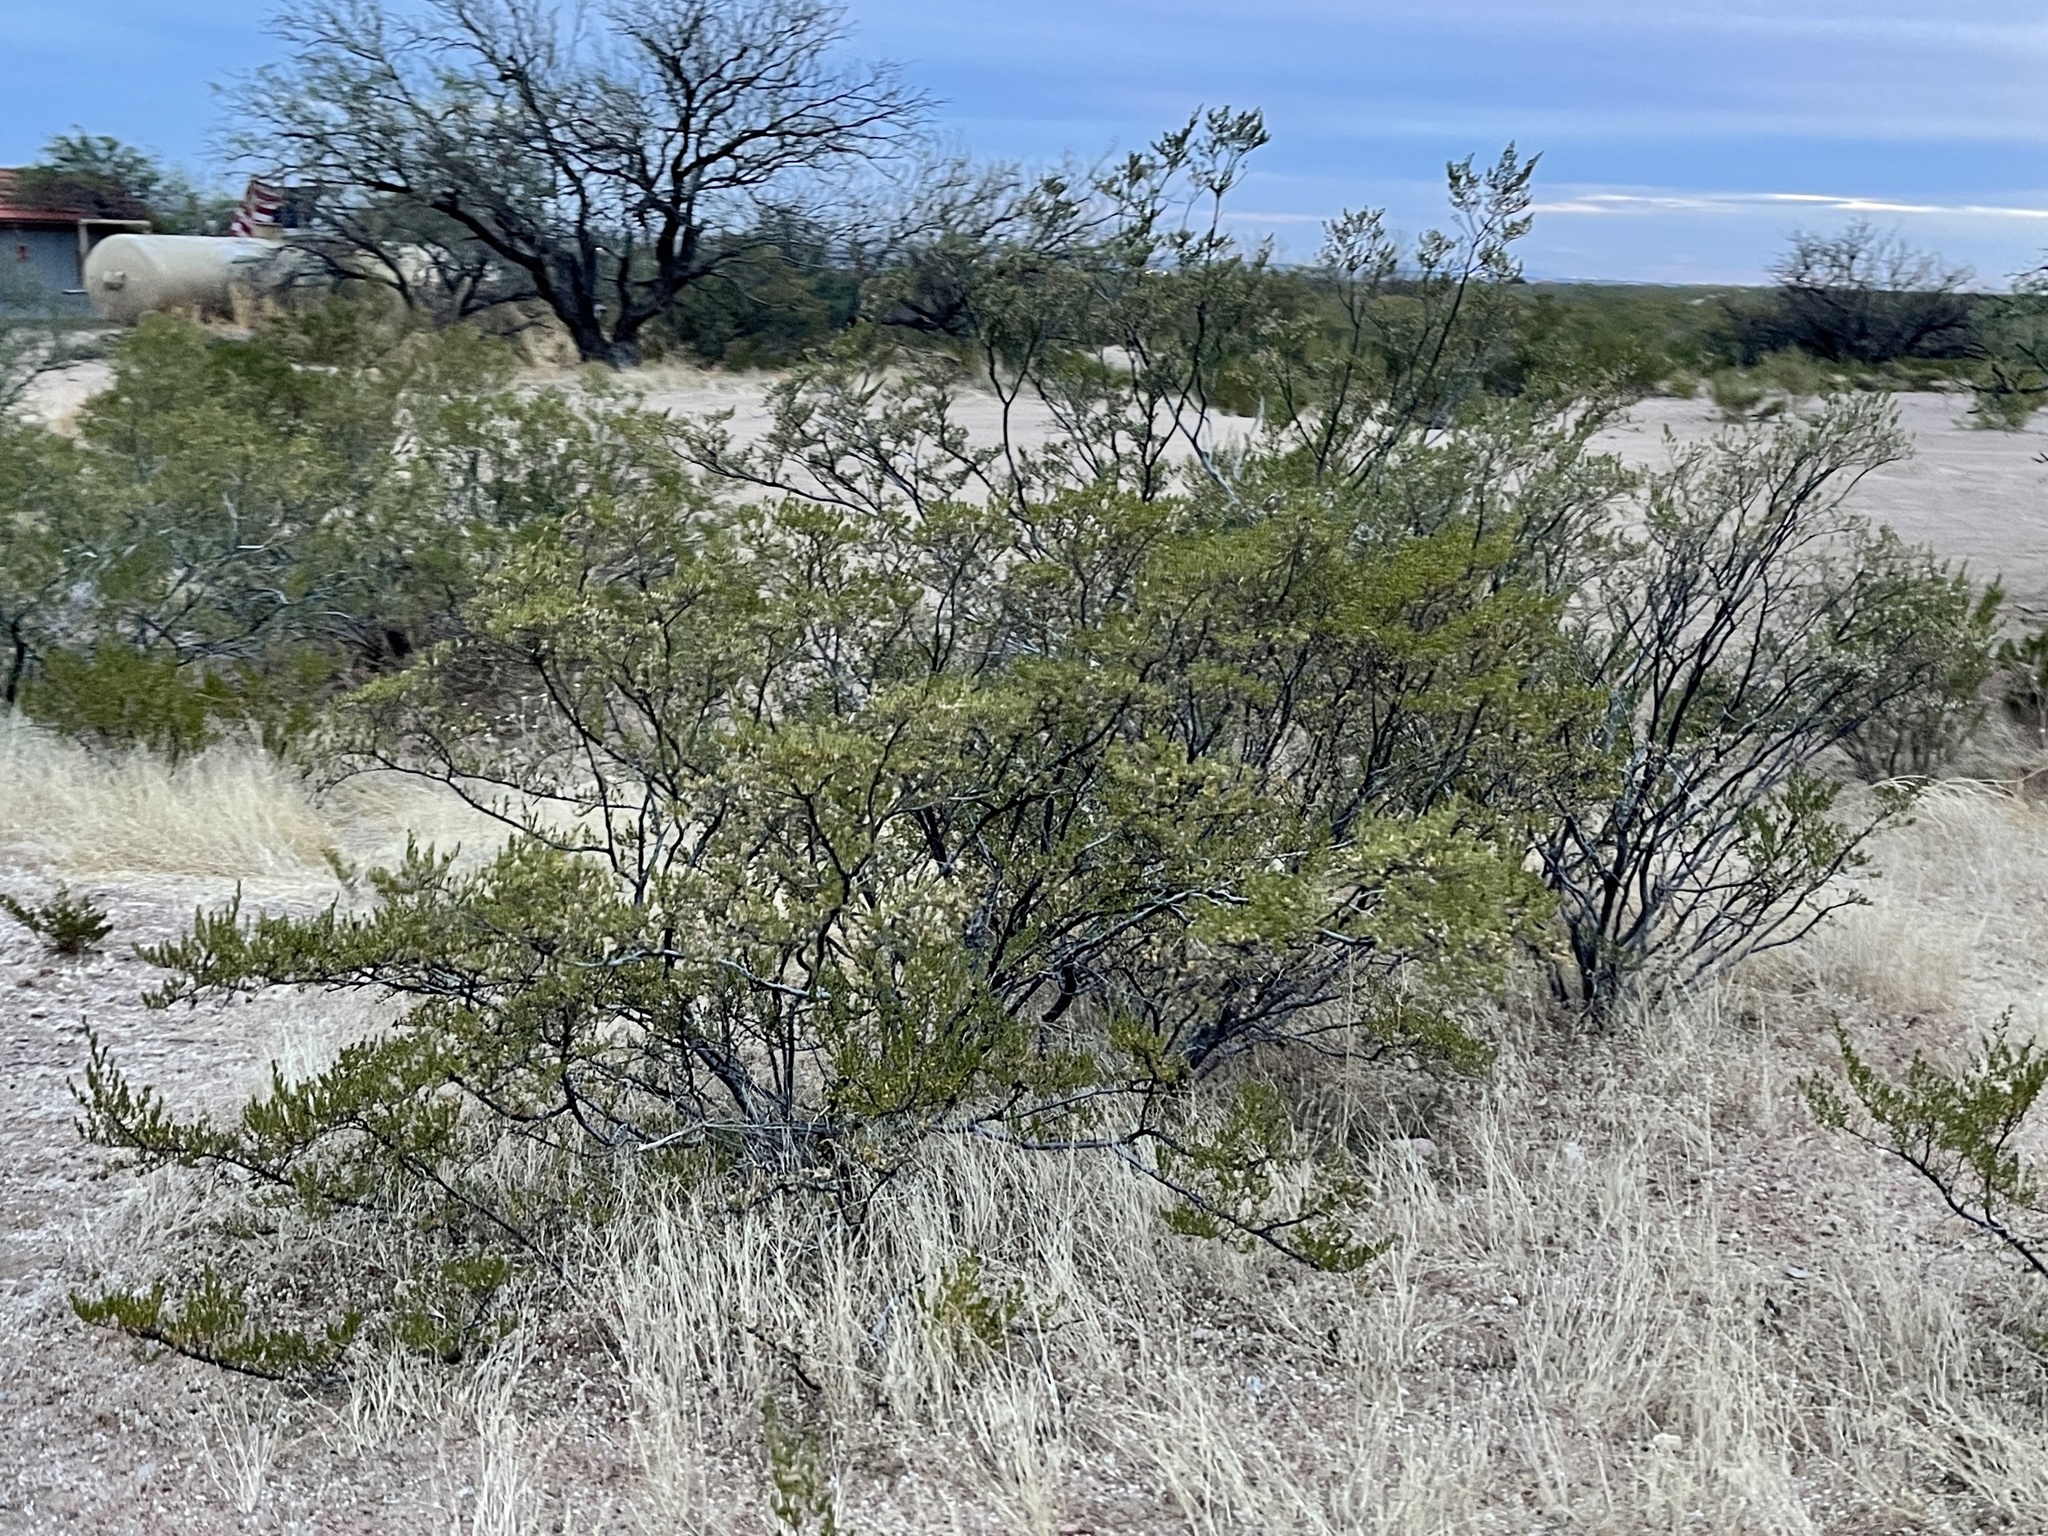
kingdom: Plantae
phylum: Tracheophyta
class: Magnoliopsida
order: Zygophyllales
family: Zygophyllaceae
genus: Larrea
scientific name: Larrea tridentata
